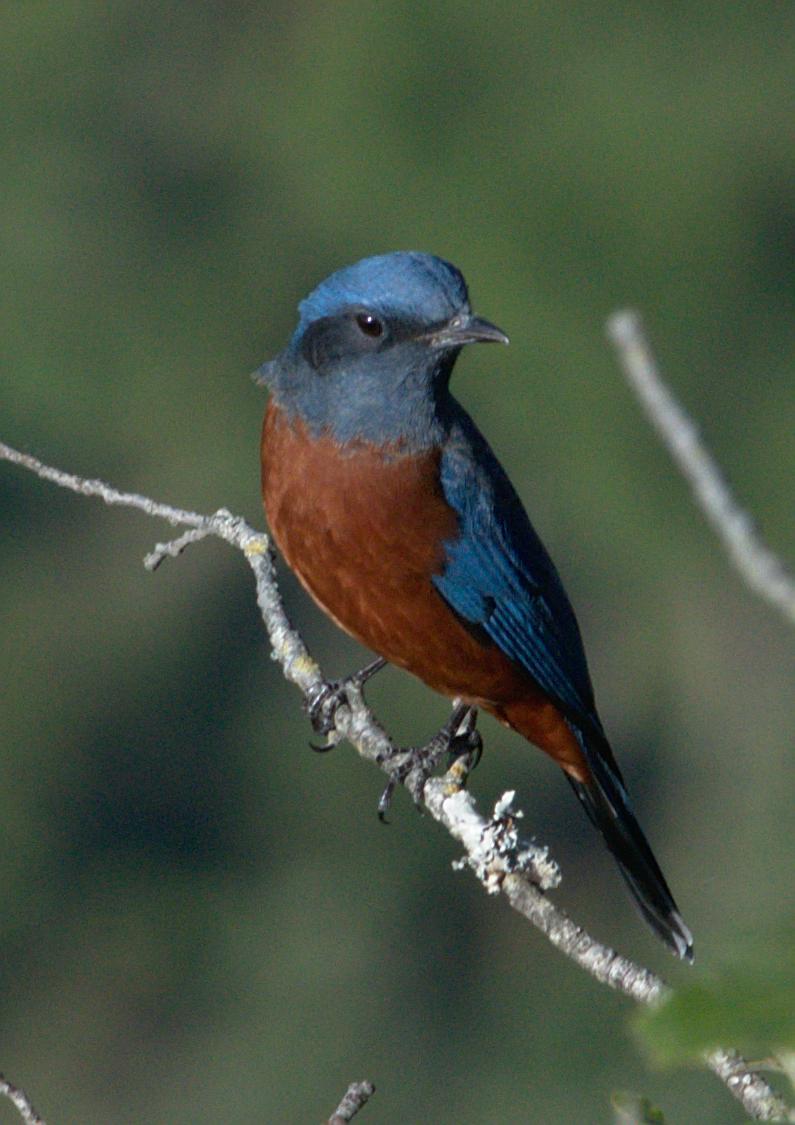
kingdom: Animalia
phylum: Chordata
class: Aves
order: Passeriformes
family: Muscicapidae
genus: Monticola
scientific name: Monticola rufiventris
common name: Chestnut-bellied rock thrush
